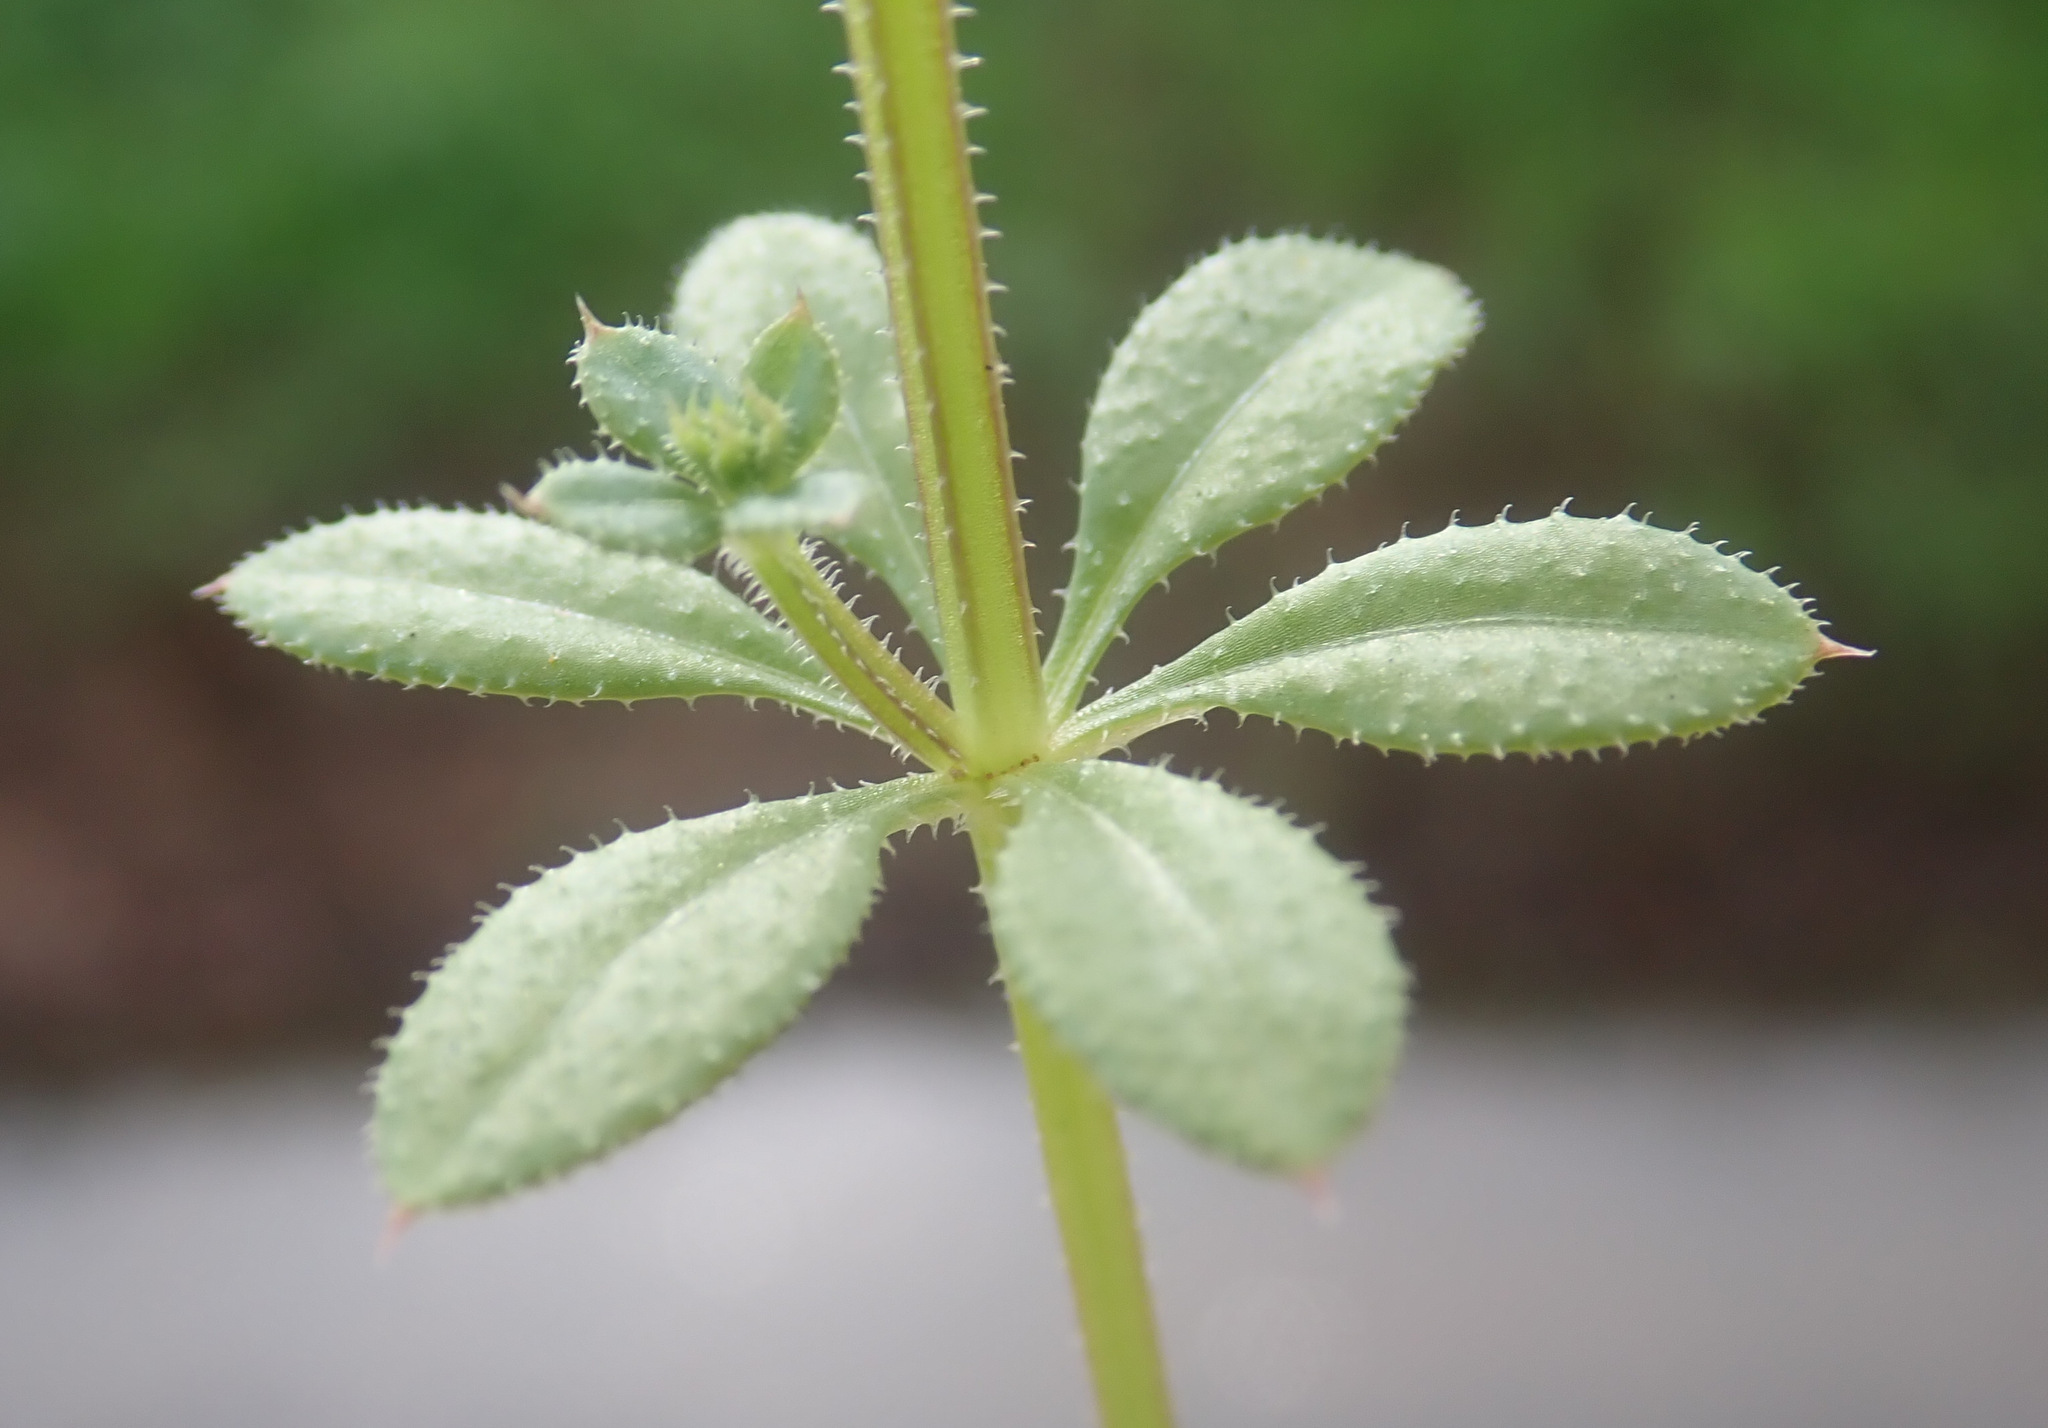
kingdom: Plantae
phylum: Tracheophyta
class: Magnoliopsida
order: Gentianales
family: Rubiaceae
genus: Galium
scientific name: Galium aparine
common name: Cleavers
